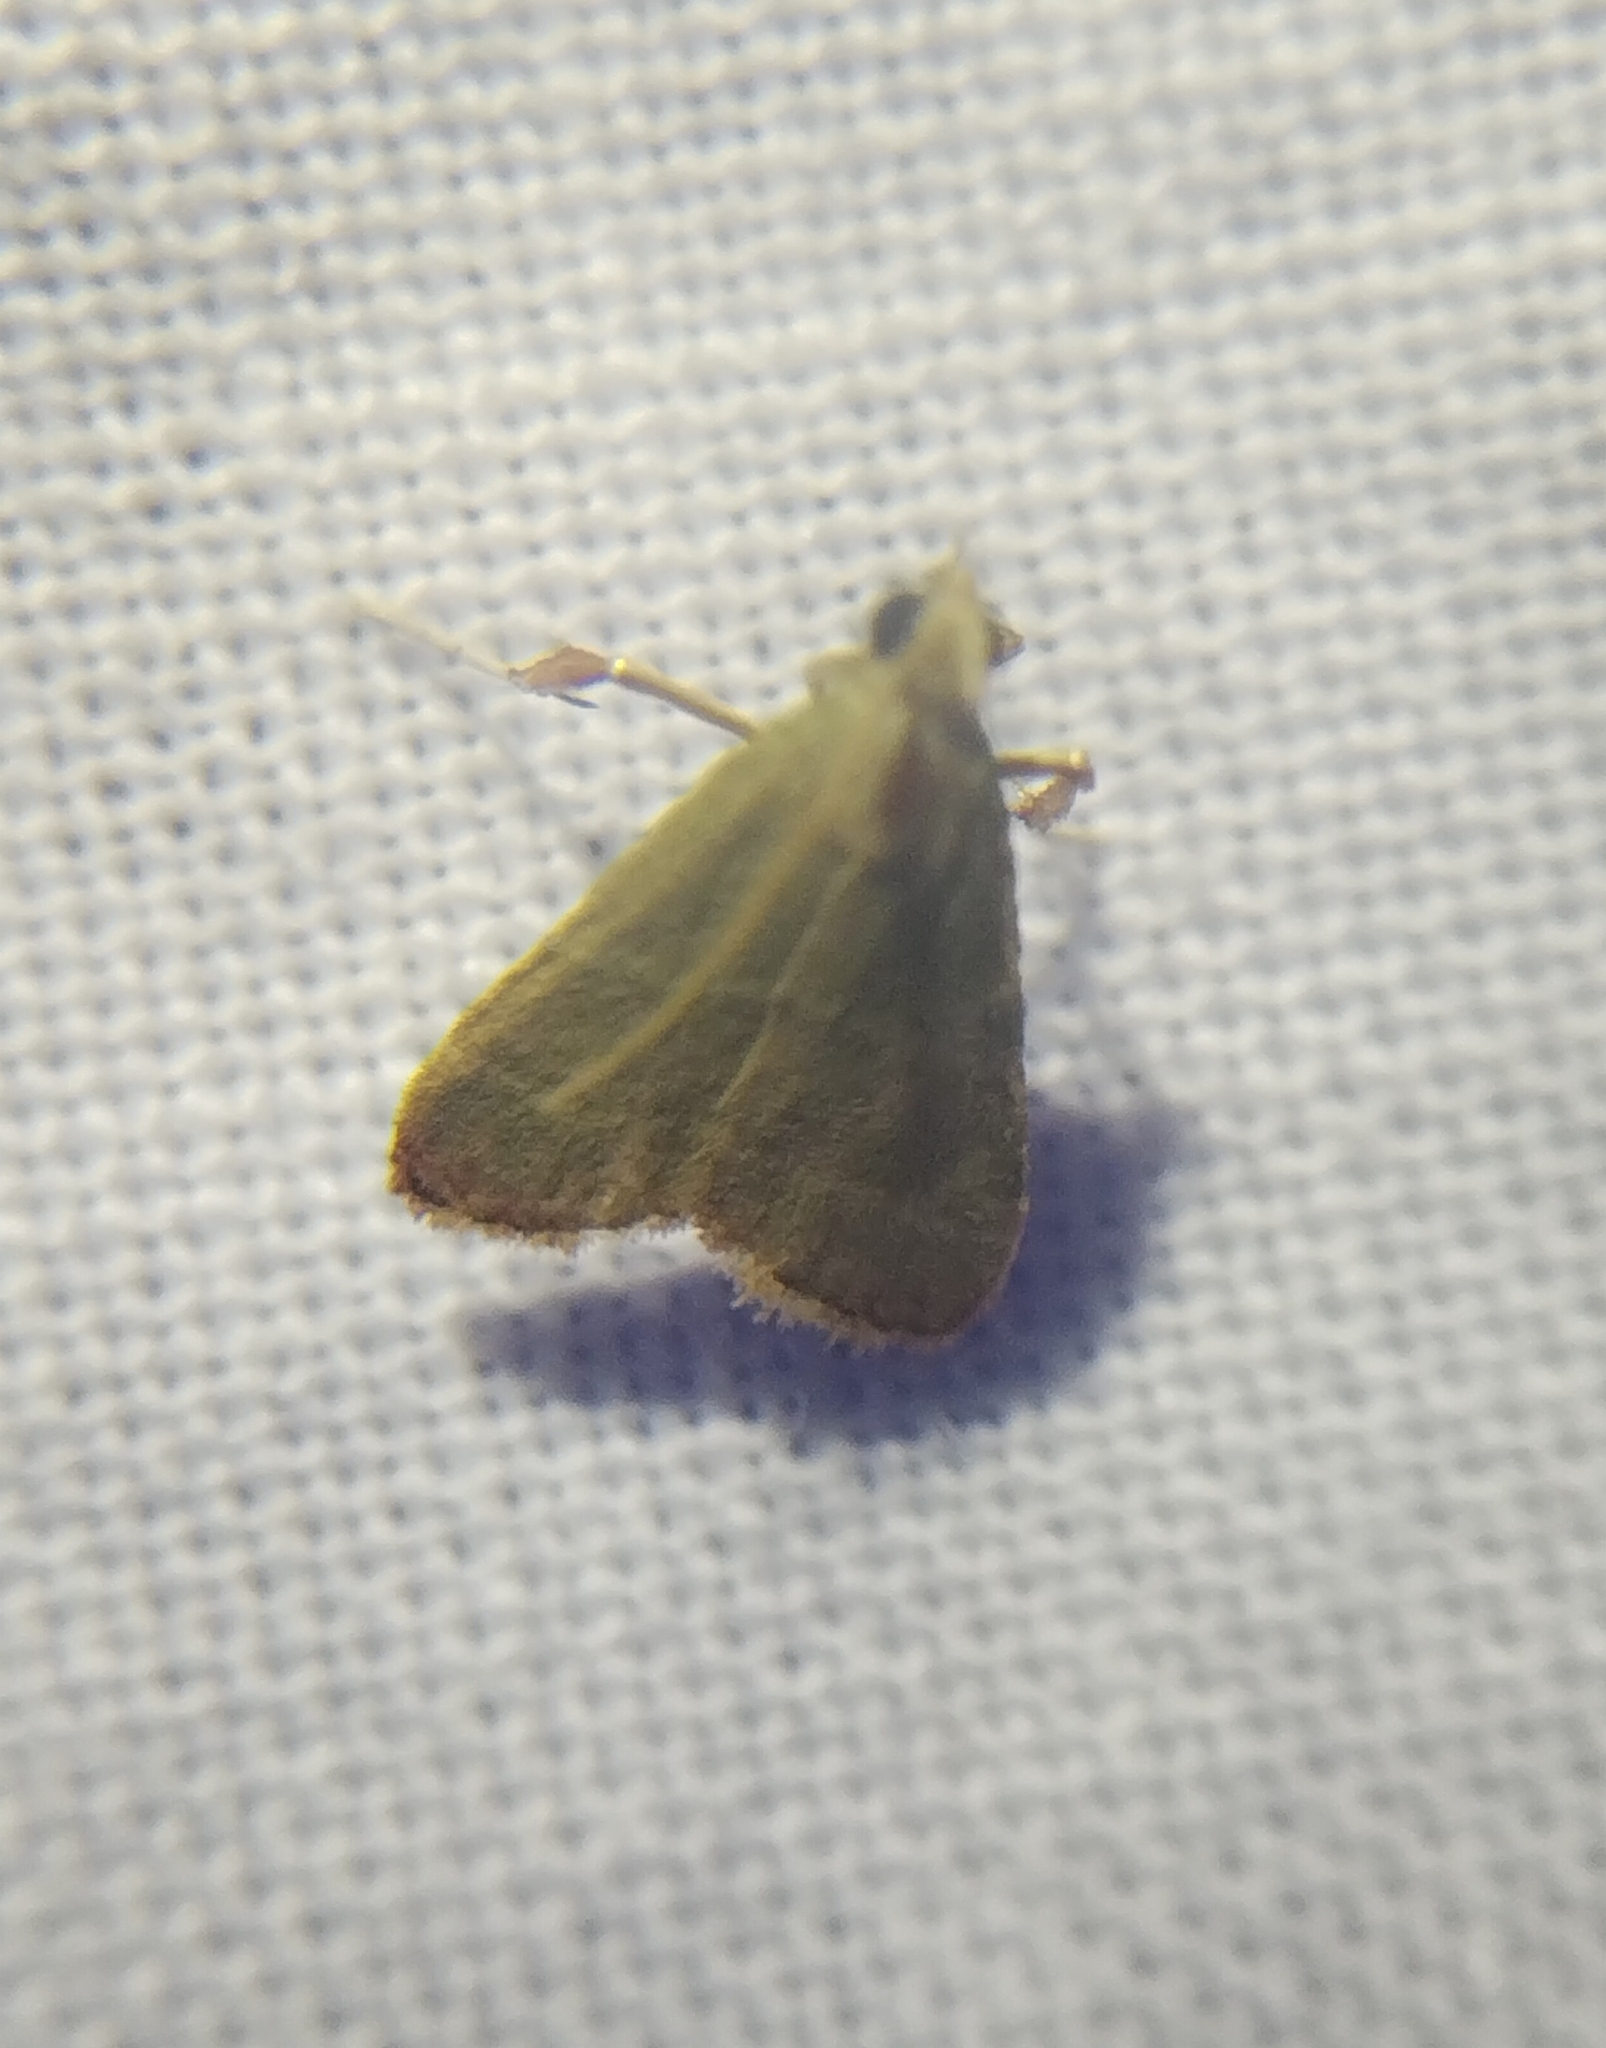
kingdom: Animalia
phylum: Arthropoda
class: Insecta
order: Lepidoptera
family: Pyralidae
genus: Arta
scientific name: Arta olivalis
